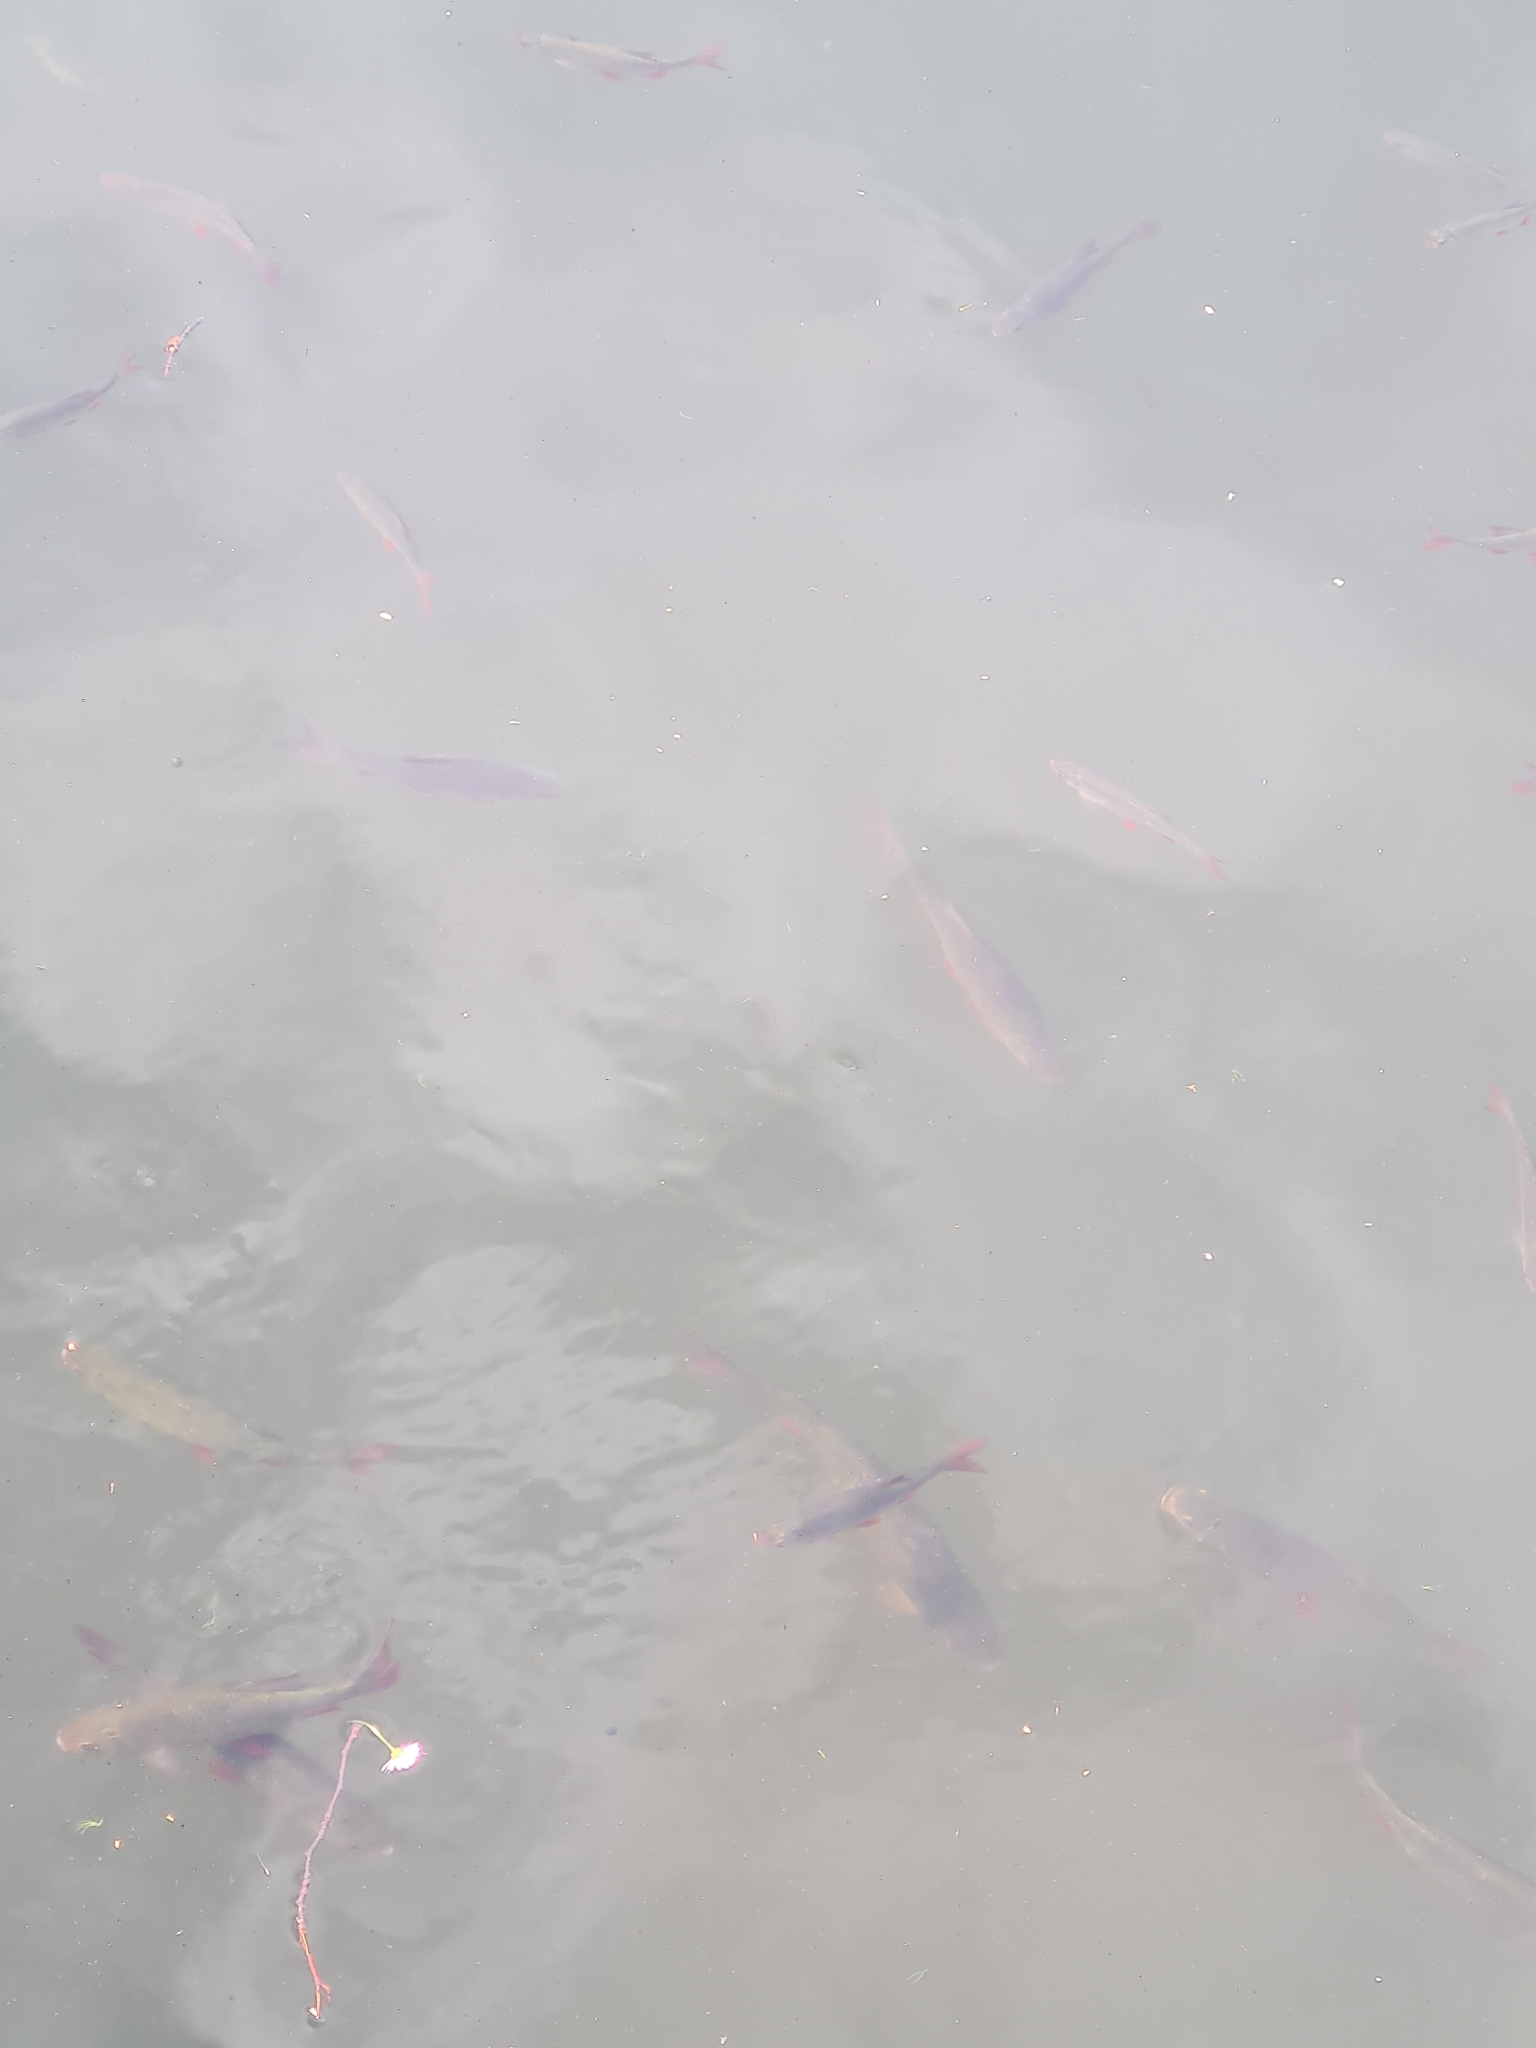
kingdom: Animalia
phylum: Chordata
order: Cypriniformes
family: Cyprinidae
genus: Scardinius
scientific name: Scardinius erythrophthalmus
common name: Rudd
